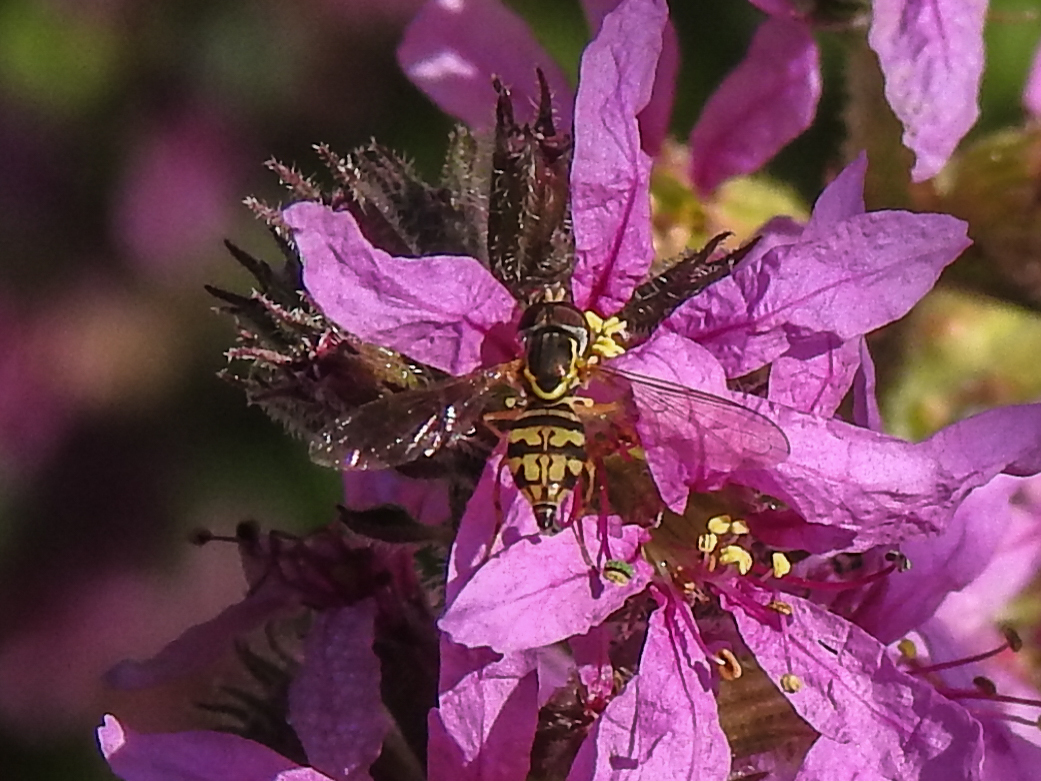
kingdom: Animalia
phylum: Arthropoda
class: Insecta
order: Diptera
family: Syrphidae
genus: Toxomerus
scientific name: Toxomerus geminatus
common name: Eastern calligrapher
